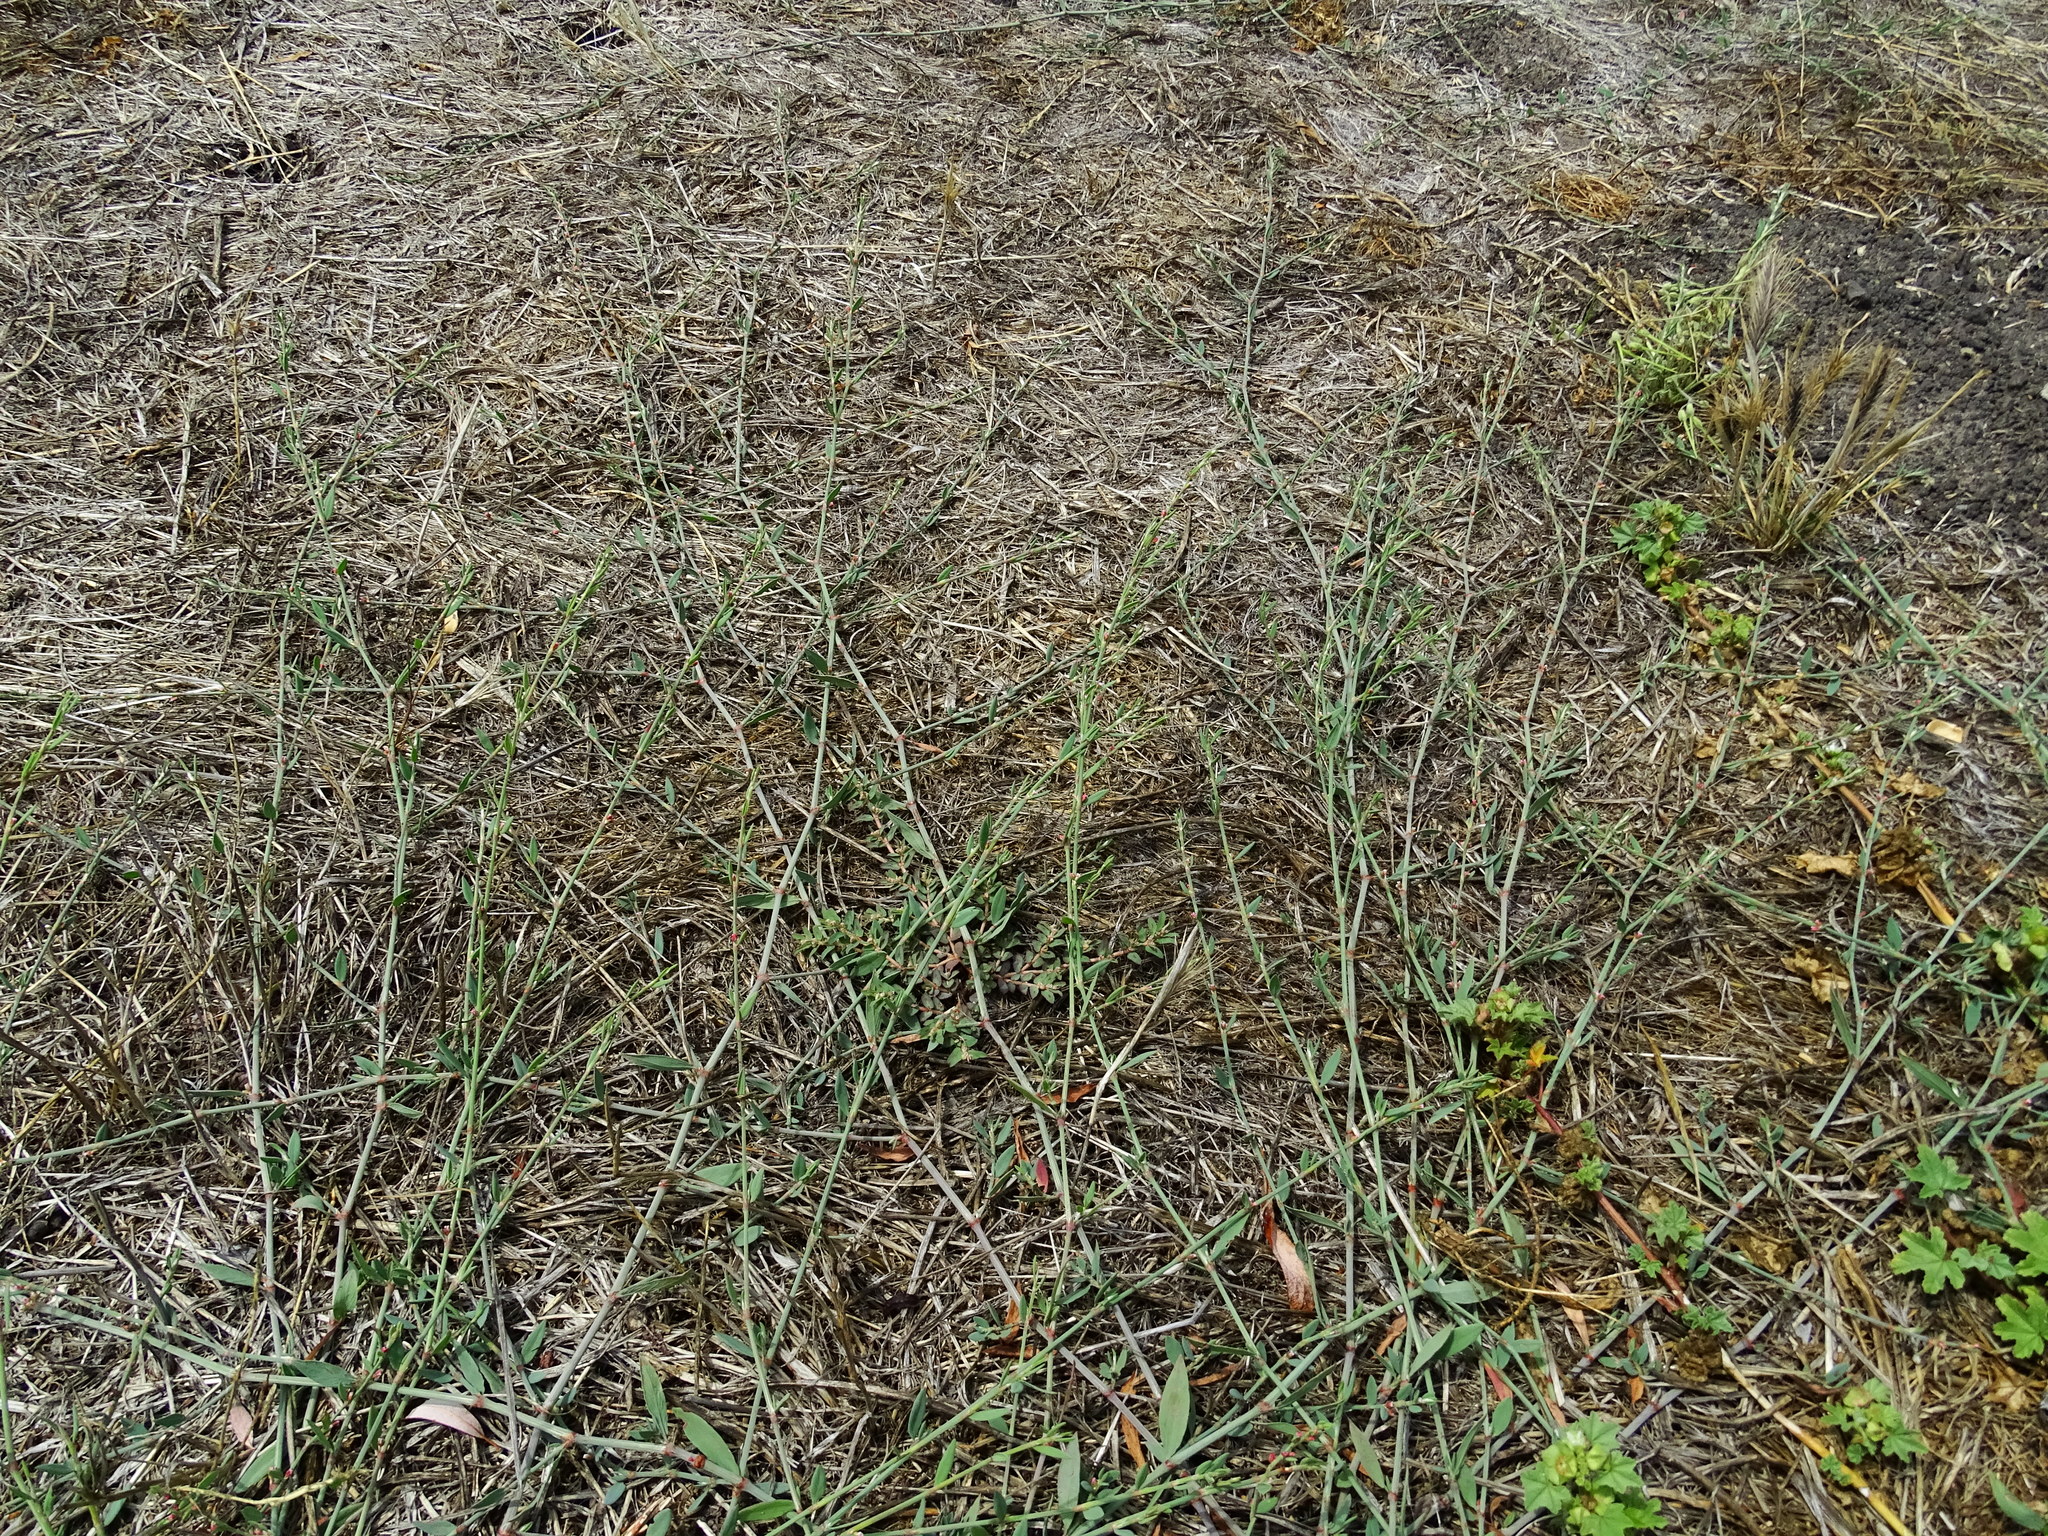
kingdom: Plantae
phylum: Tracheophyta
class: Magnoliopsida
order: Caryophyllales
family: Polygonaceae
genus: Polygonum
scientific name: Polygonum aviculare
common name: Prostrate knotweed
